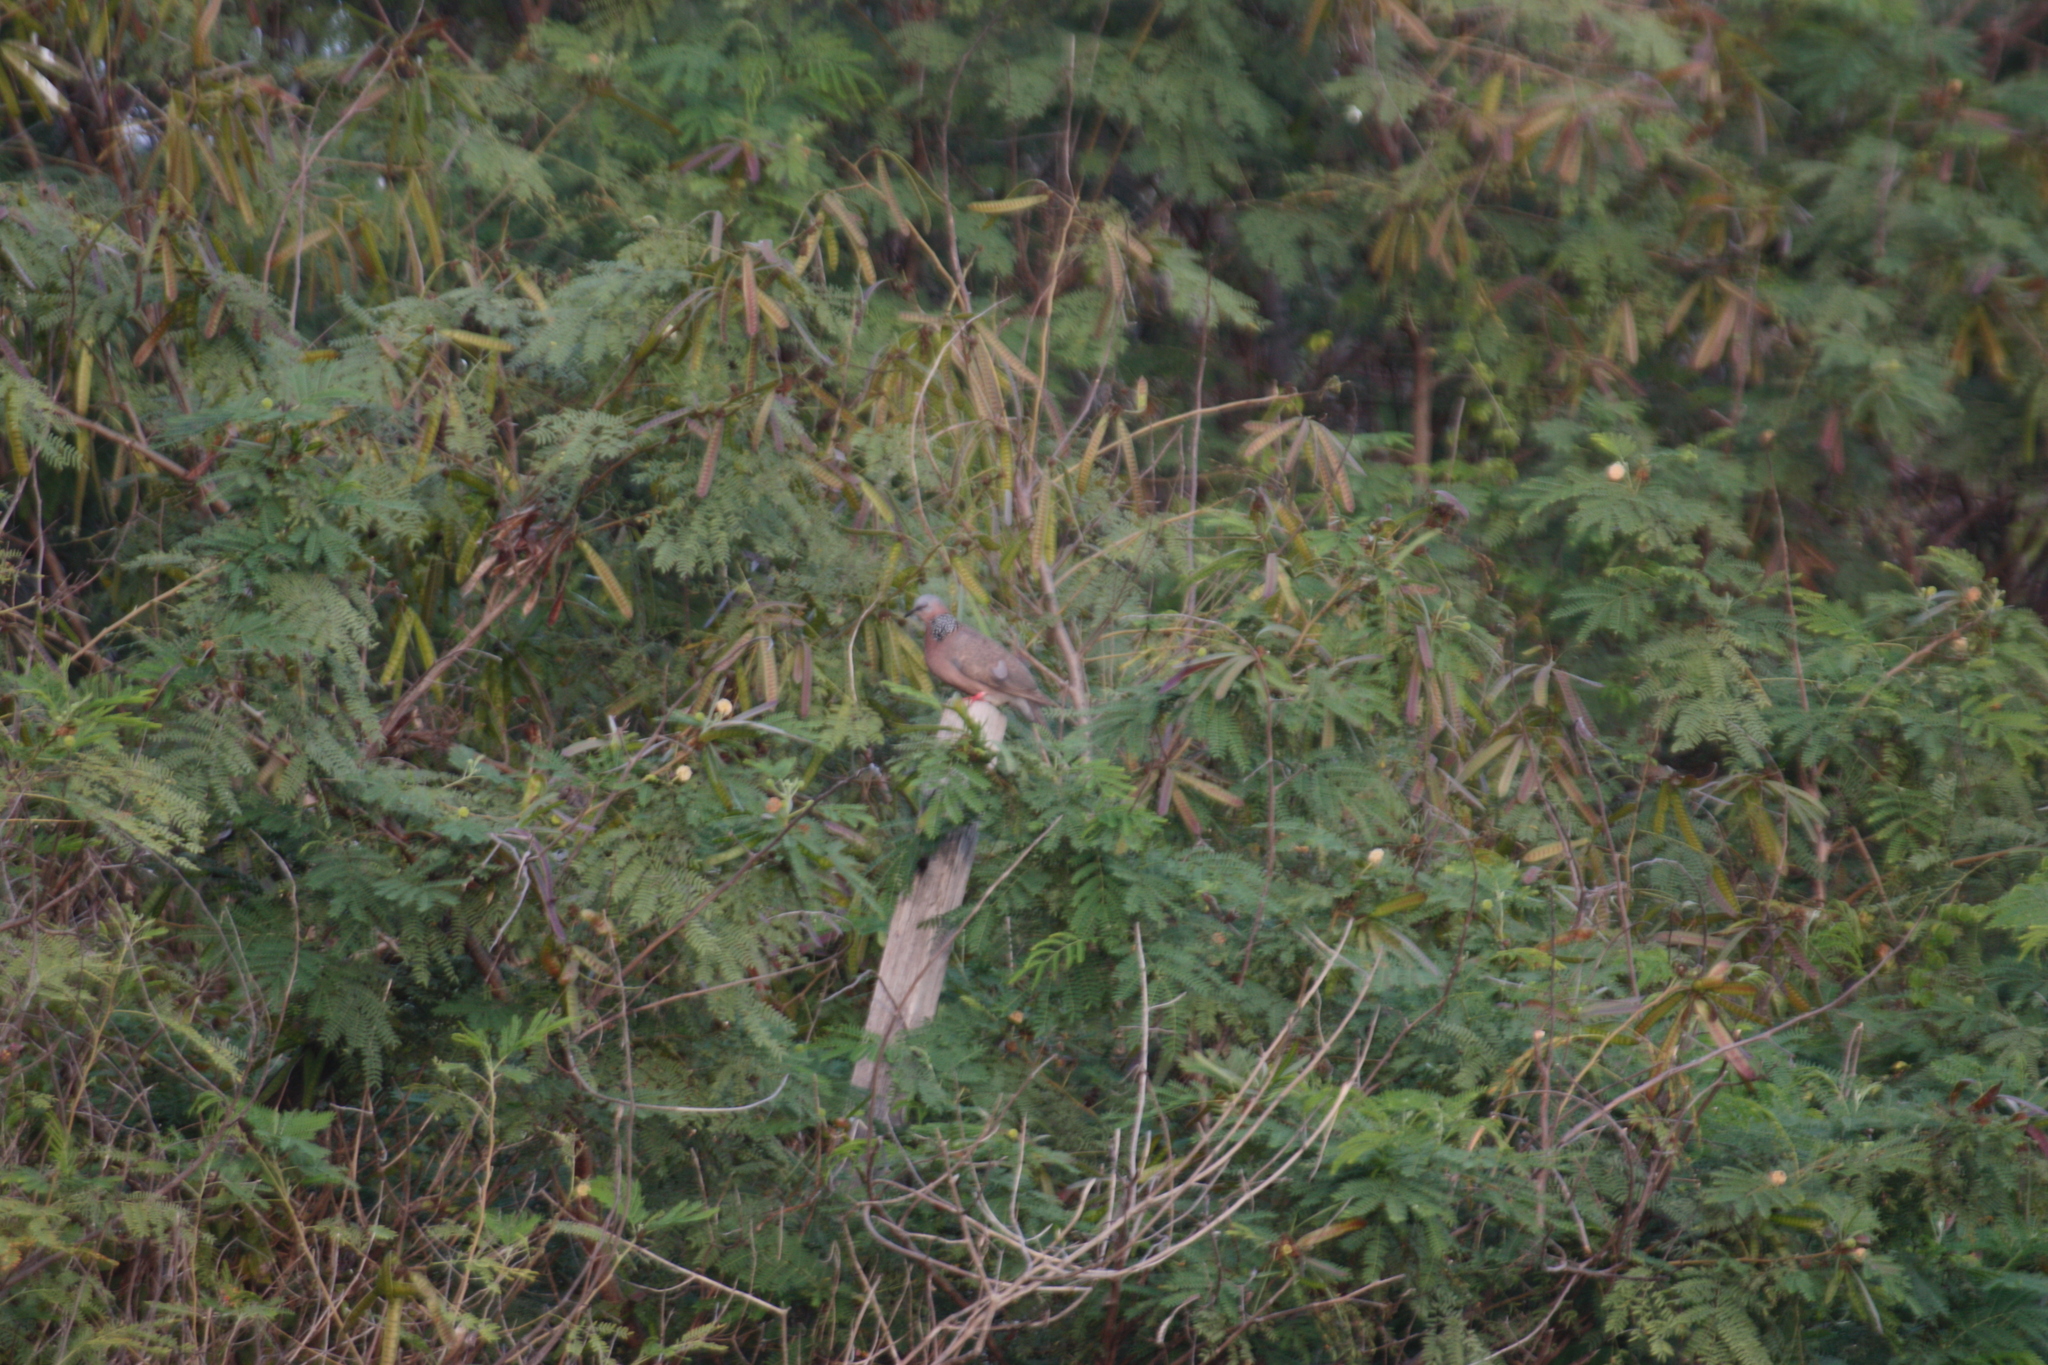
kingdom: Animalia
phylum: Chordata
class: Aves
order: Columbiformes
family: Columbidae
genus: Spilopelia
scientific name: Spilopelia chinensis
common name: Spotted dove
